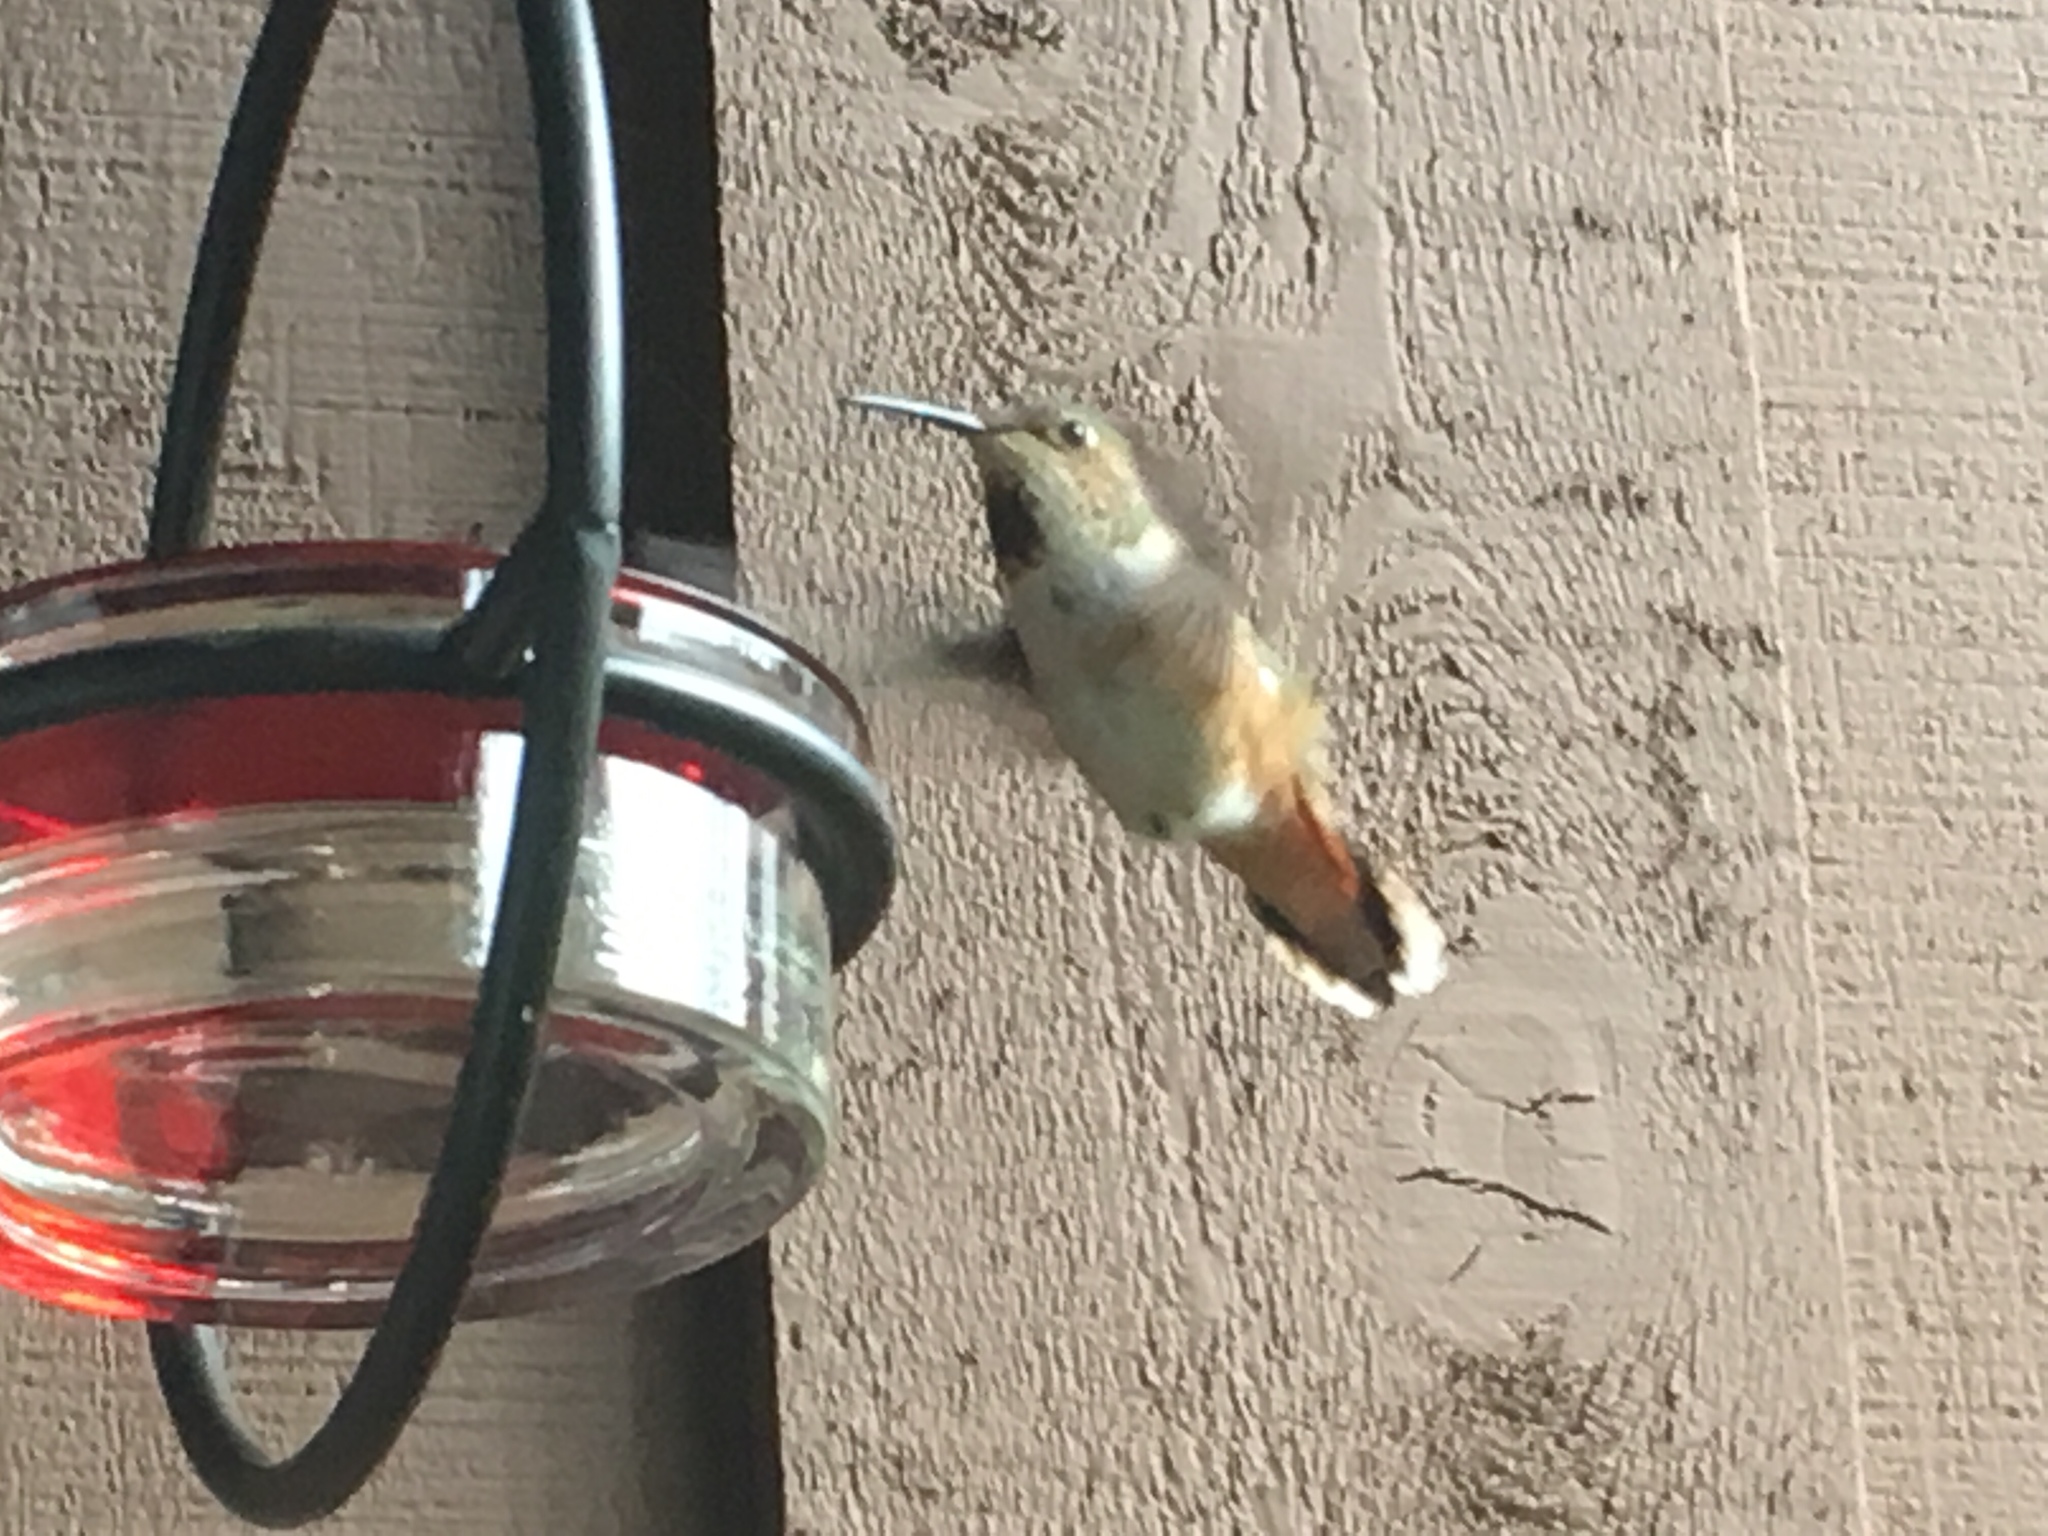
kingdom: Animalia
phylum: Chordata
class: Aves
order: Apodiformes
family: Trochilidae
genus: Selasphorus
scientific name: Selasphorus sasin
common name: Allen's hummingbird
